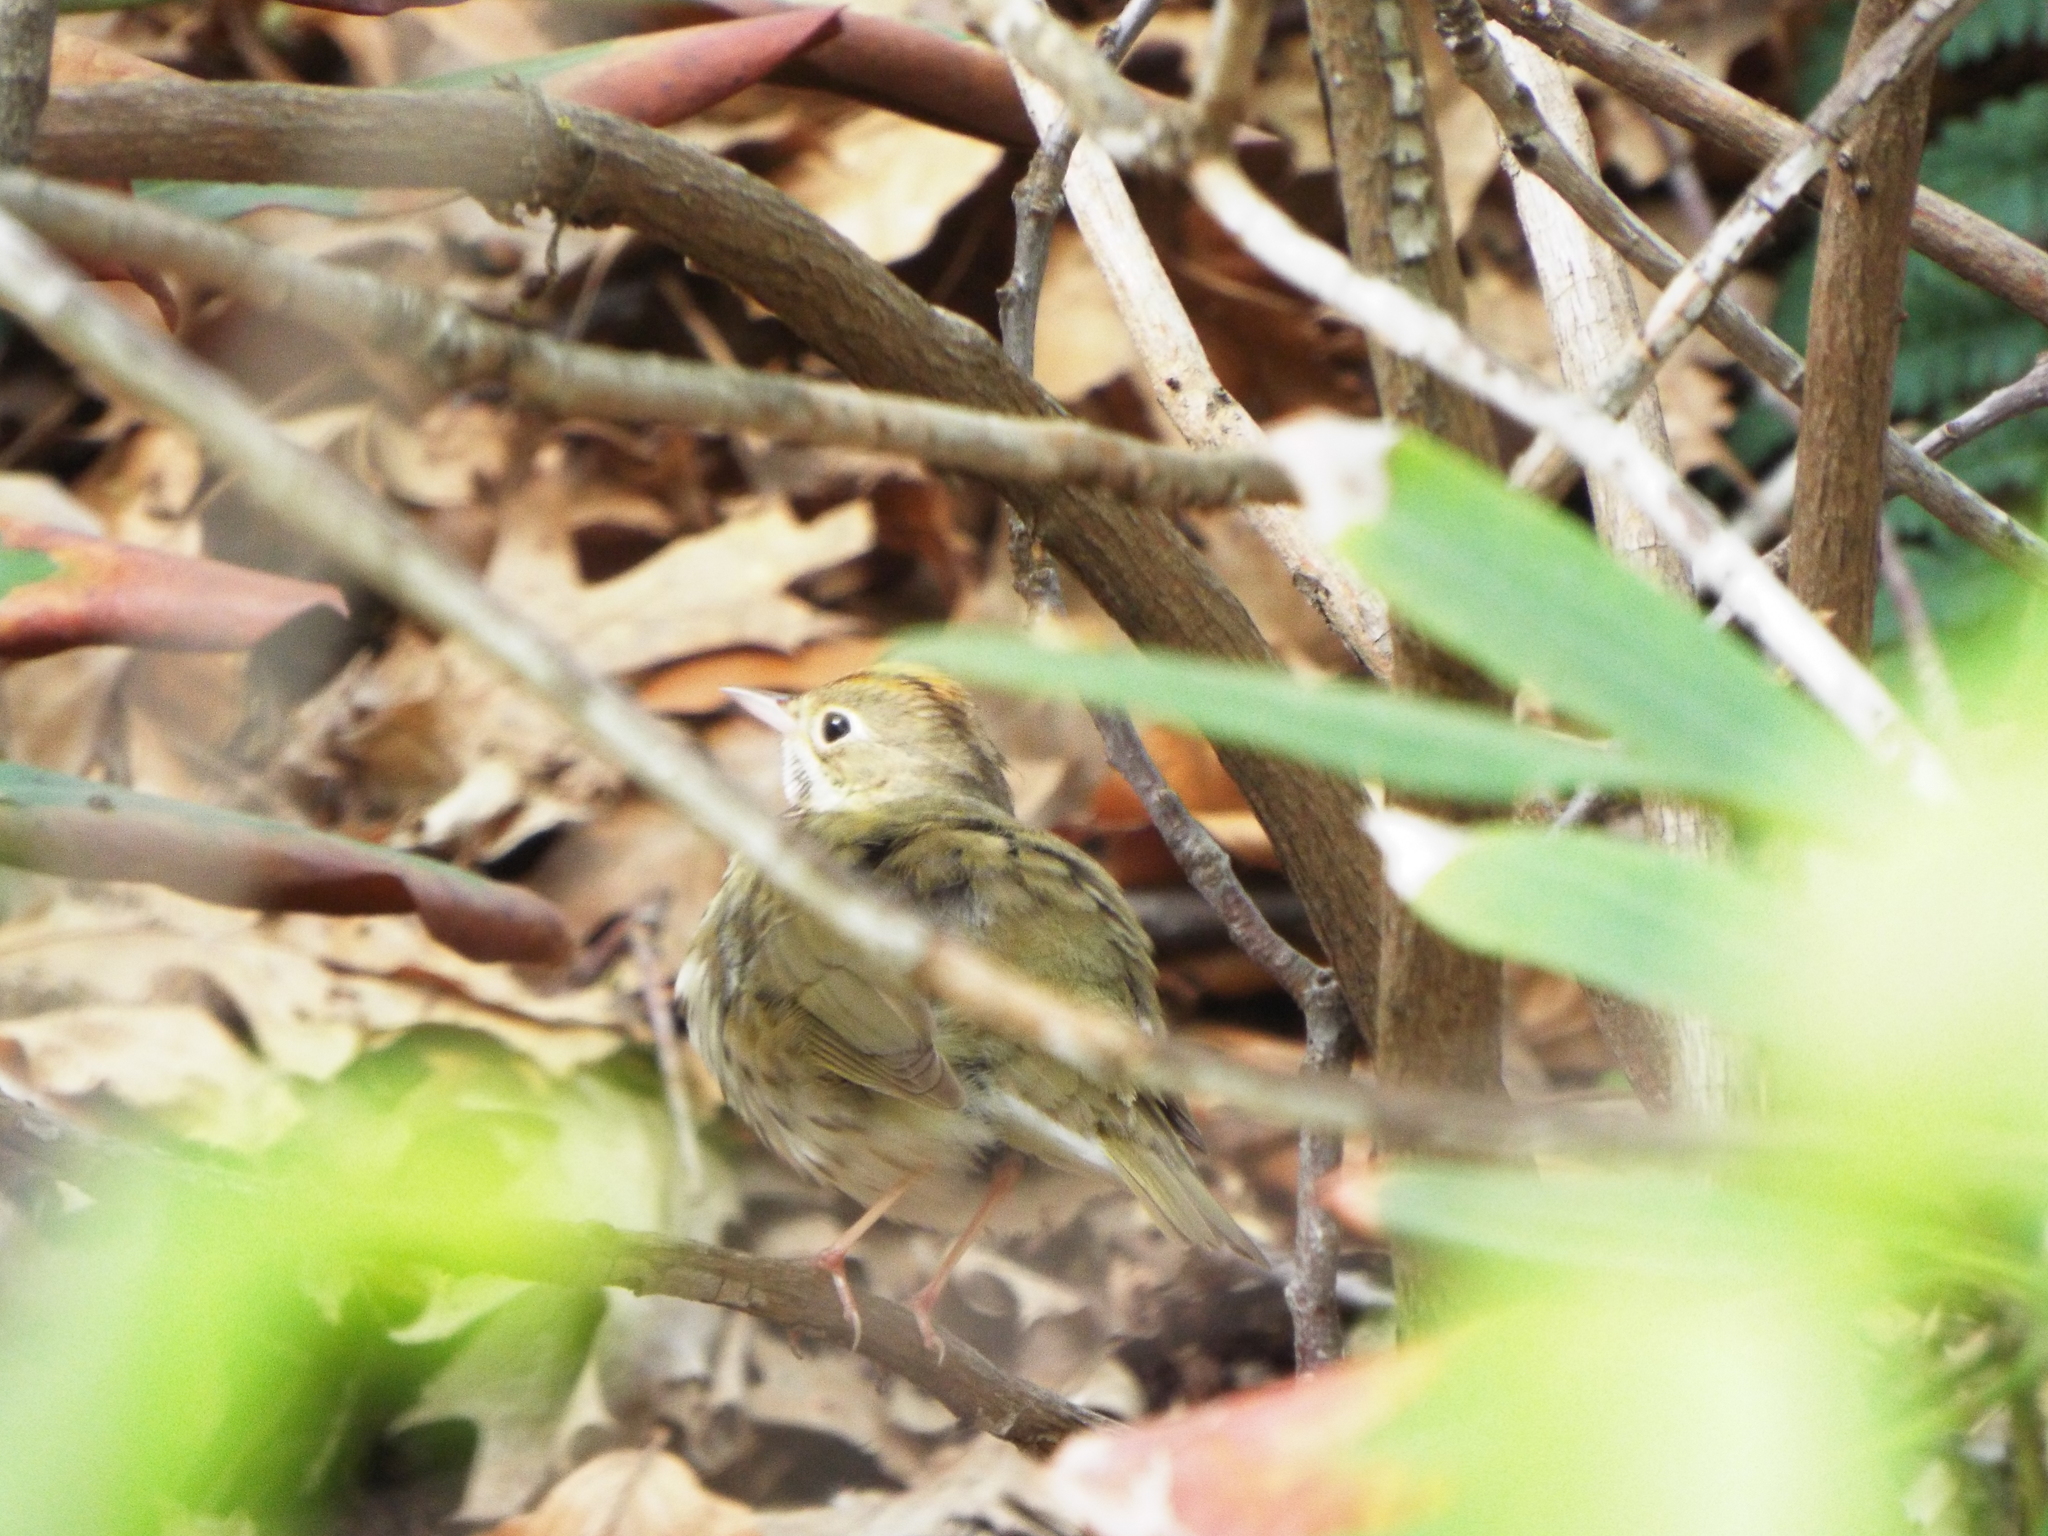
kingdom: Animalia
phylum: Chordata
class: Aves
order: Passeriformes
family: Parulidae
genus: Seiurus
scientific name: Seiurus aurocapilla
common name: Ovenbird
